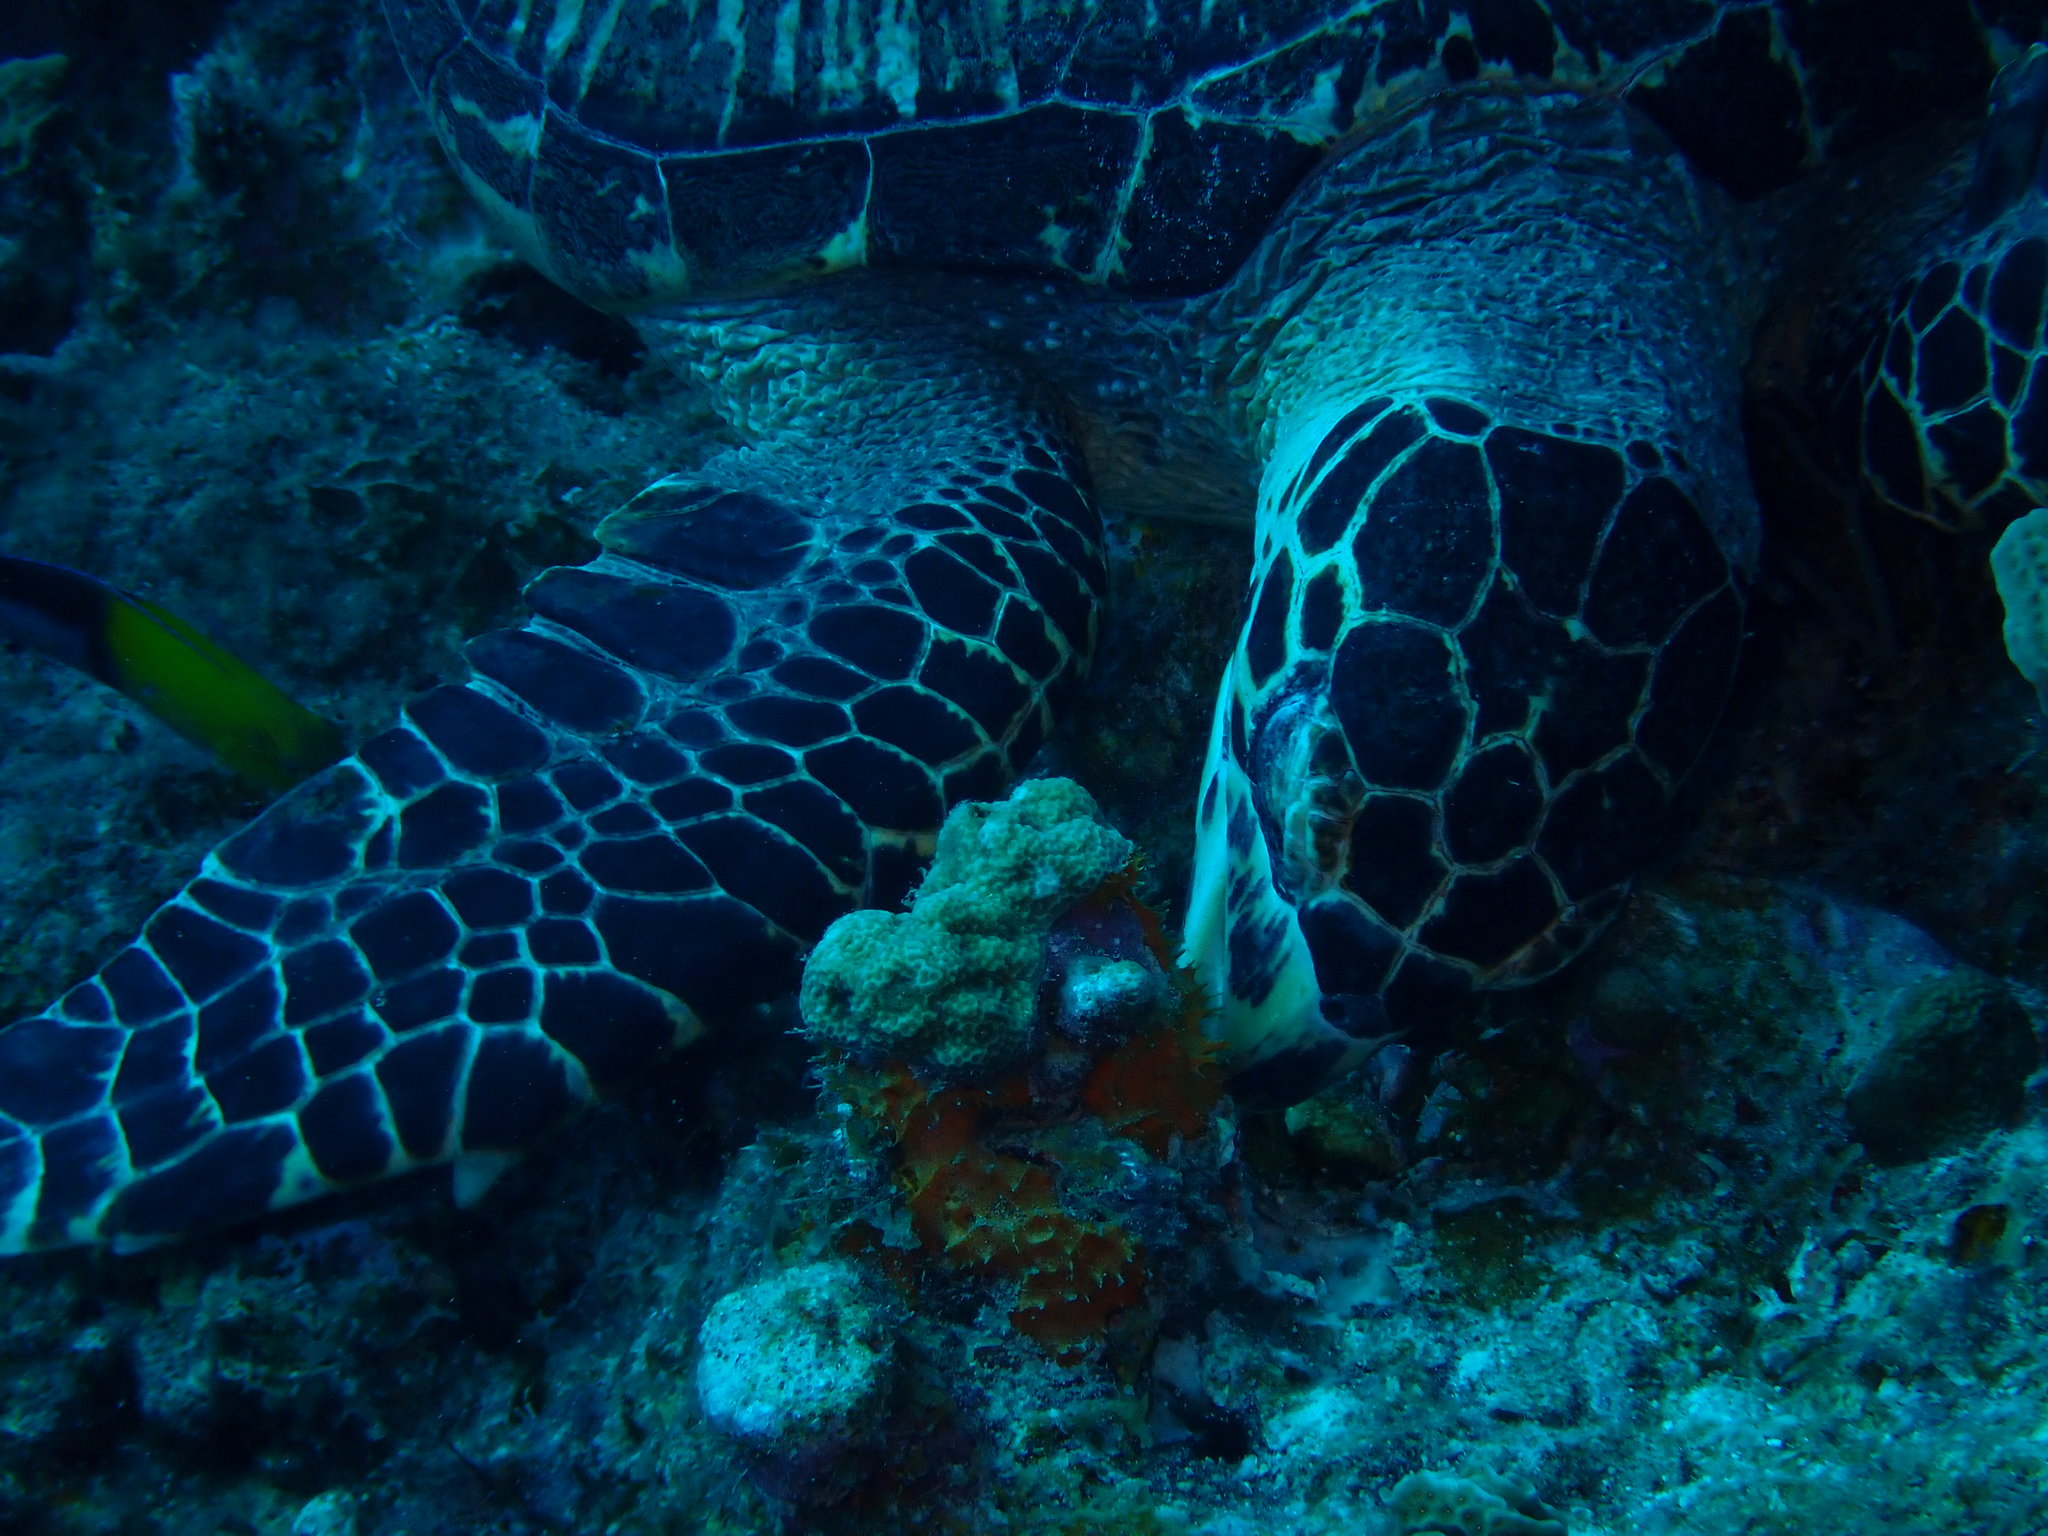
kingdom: Animalia
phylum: Chordata
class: Testudines
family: Cheloniidae
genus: Eretmochelys
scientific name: Eretmochelys imbricata
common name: Hawksbill turtle
